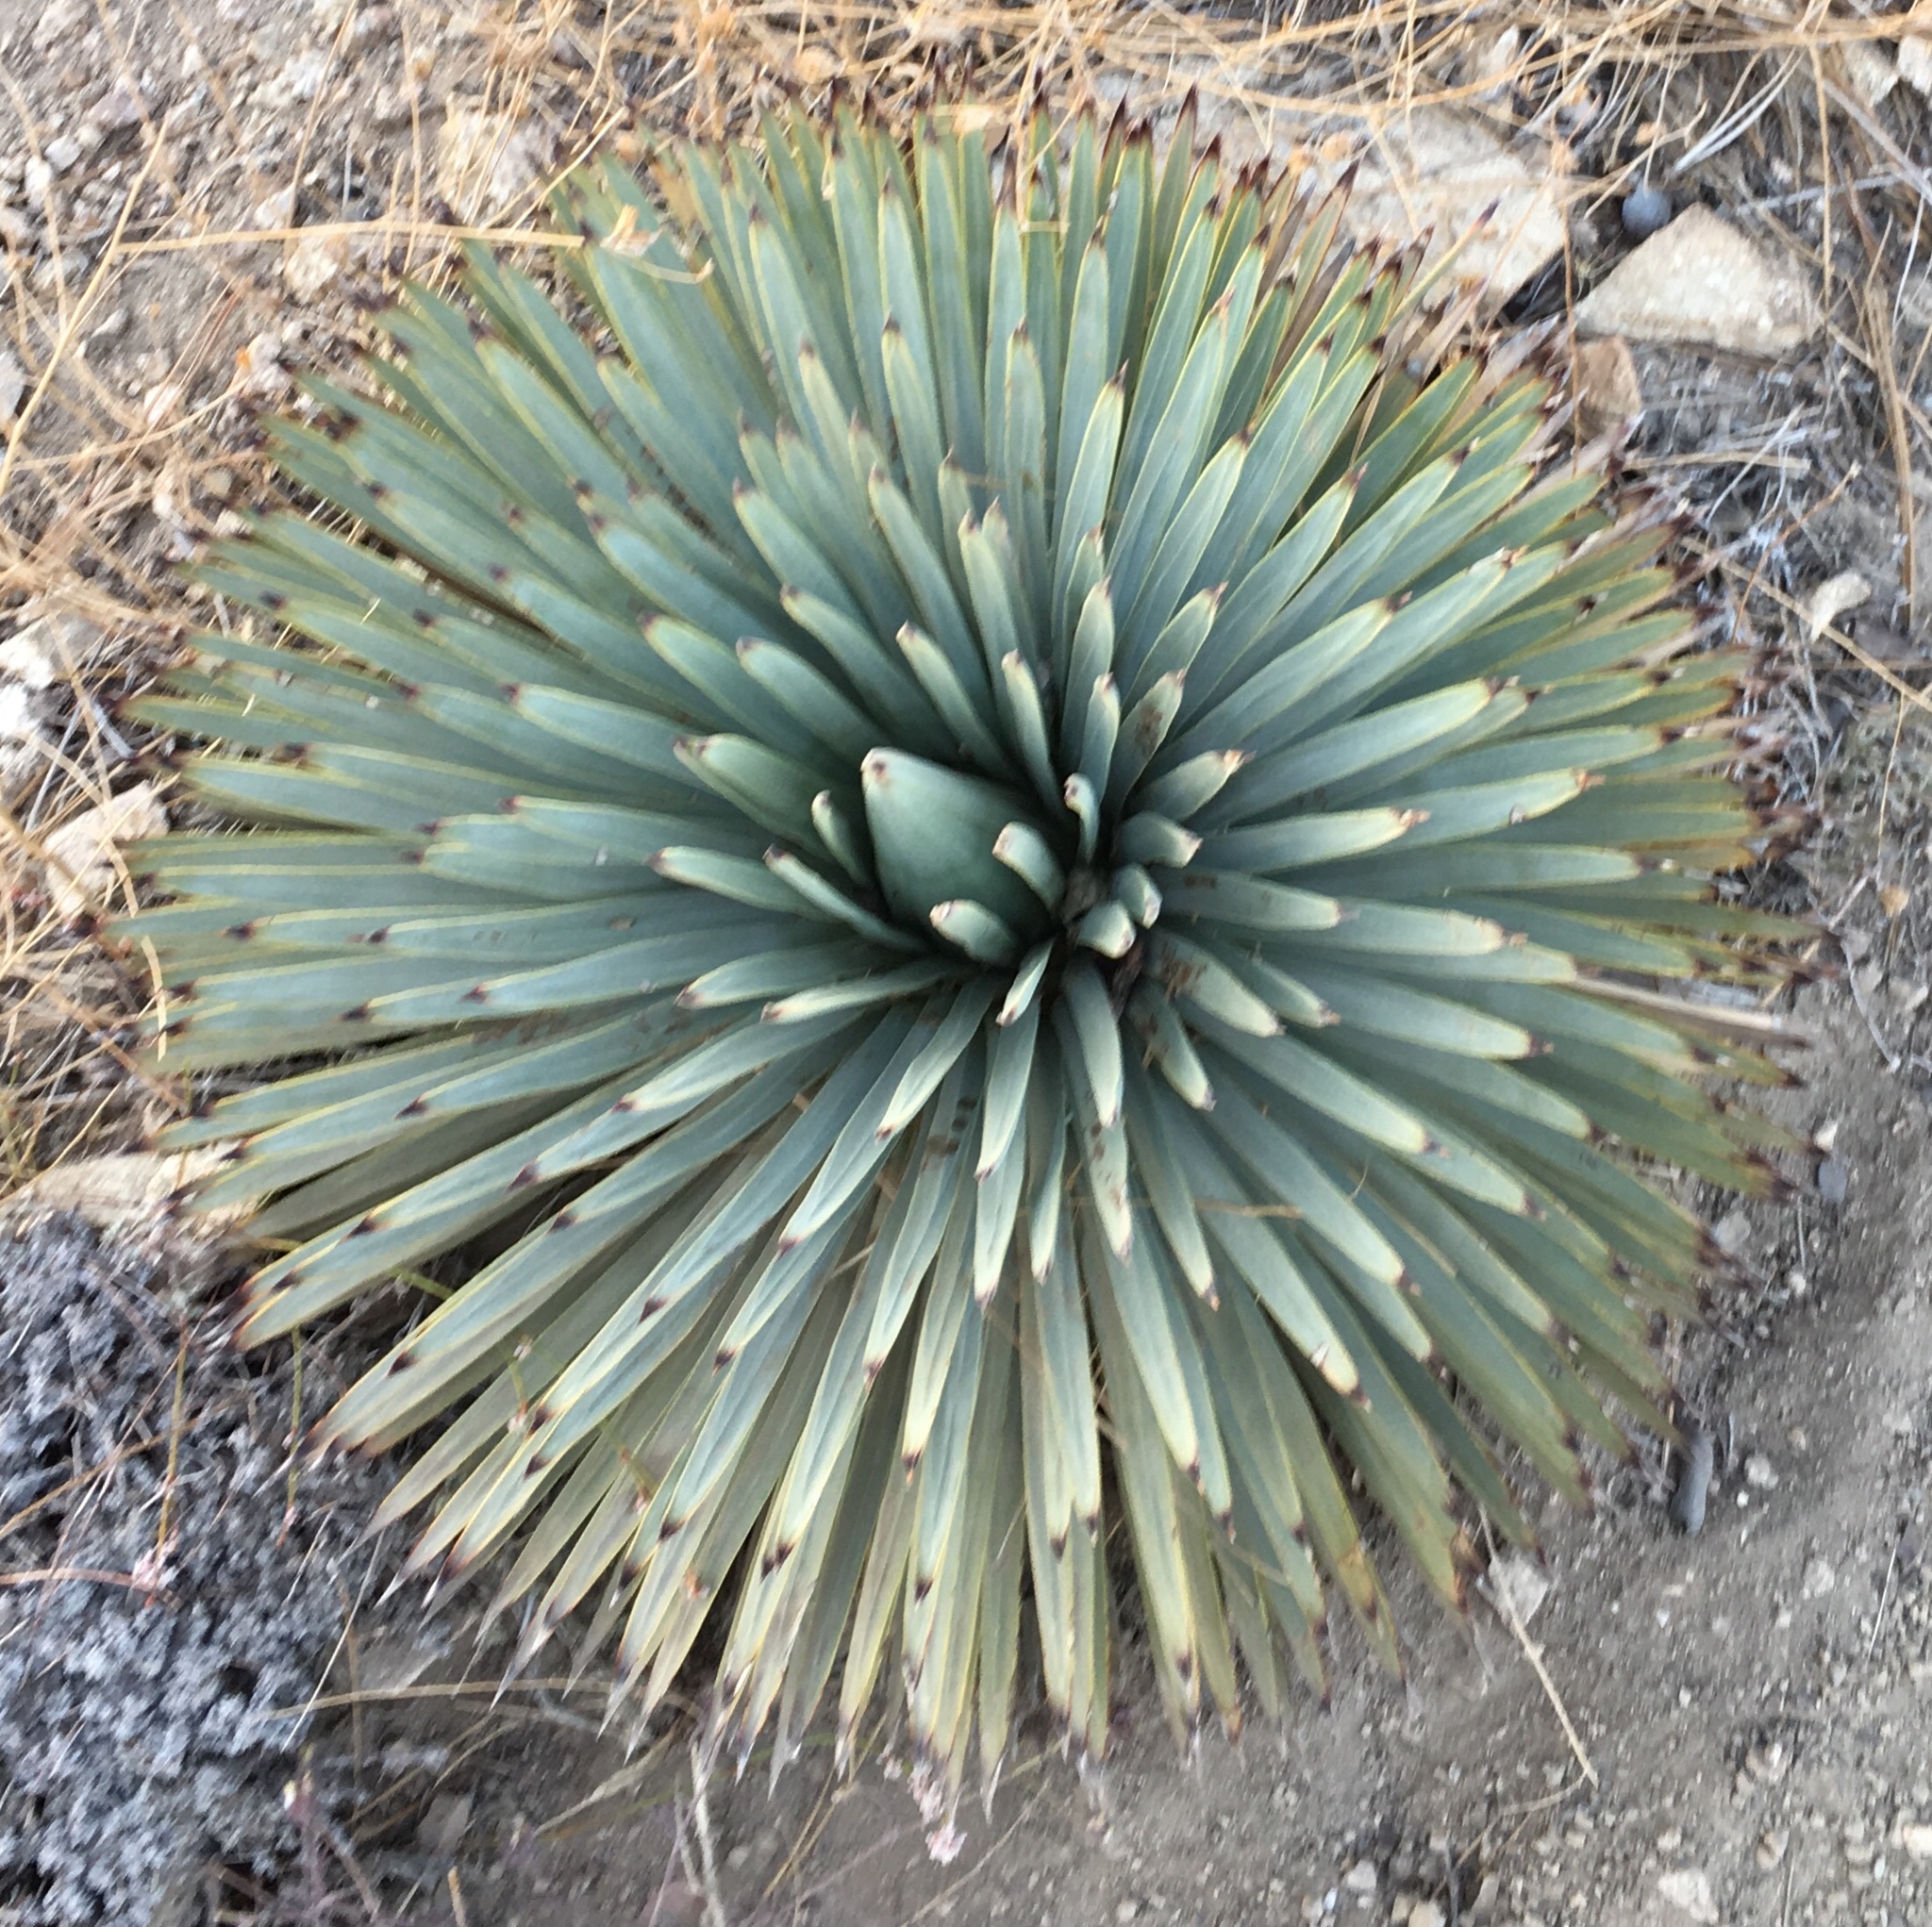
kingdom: Plantae
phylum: Tracheophyta
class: Liliopsida
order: Asparagales
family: Asparagaceae
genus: Hesperoyucca
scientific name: Hesperoyucca whipplei
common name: Our lord's-candle
